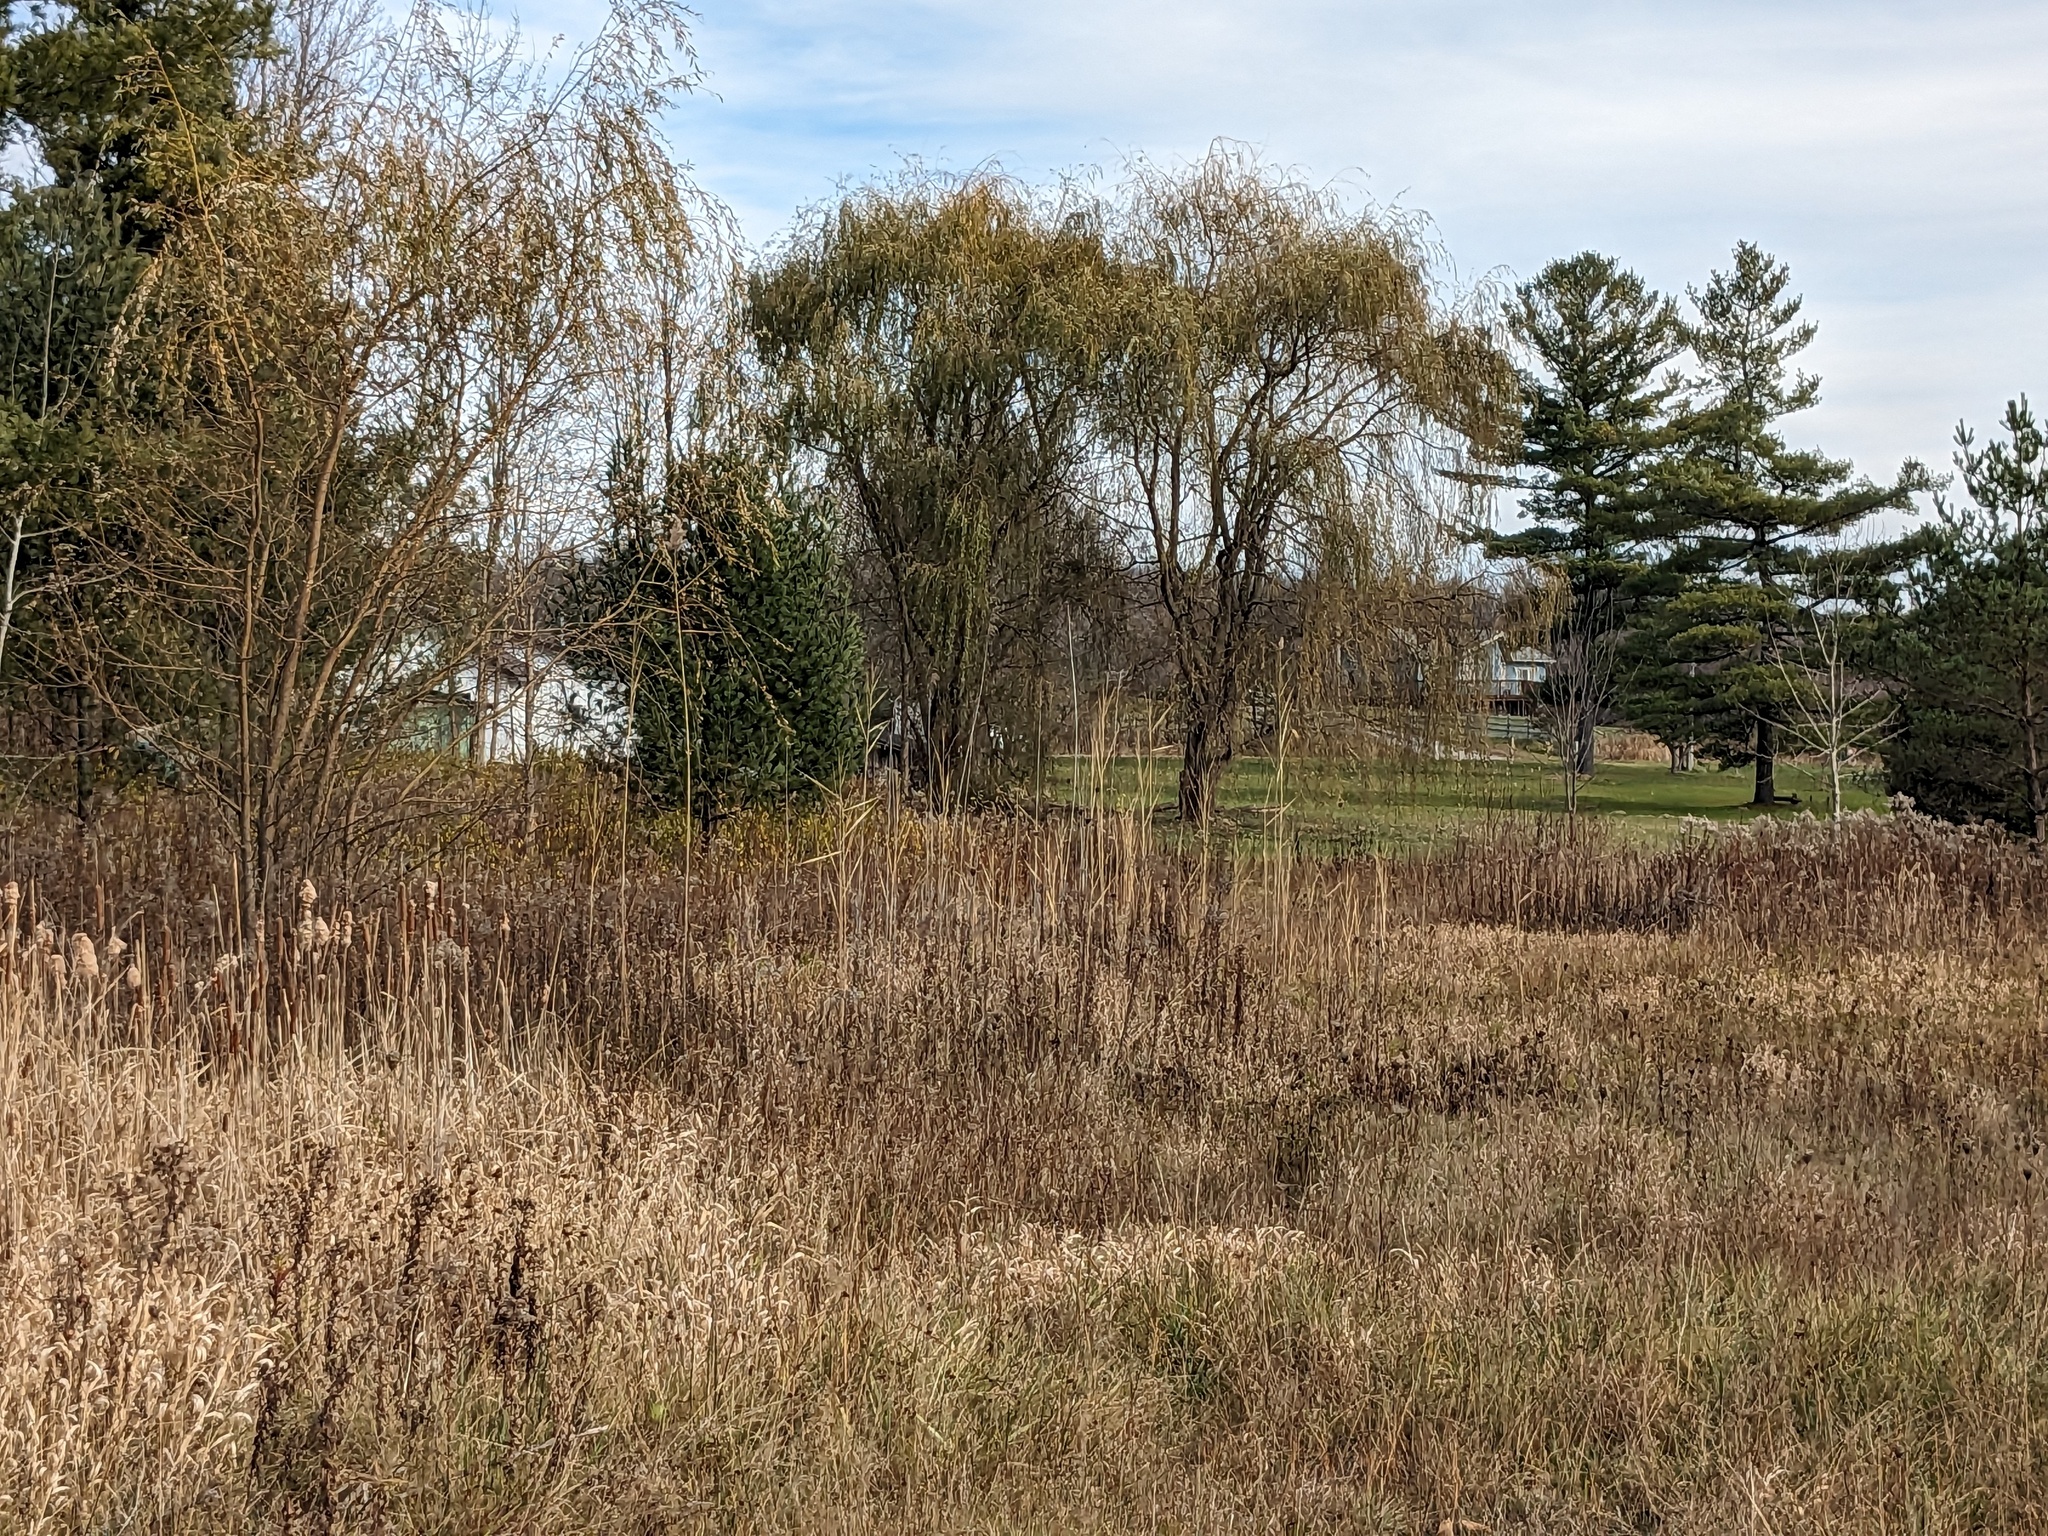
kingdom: Plantae
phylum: Tracheophyta
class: Liliopsida
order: Poales
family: Poaceae
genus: Phragmites
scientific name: Phragmites australis
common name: Common reed
